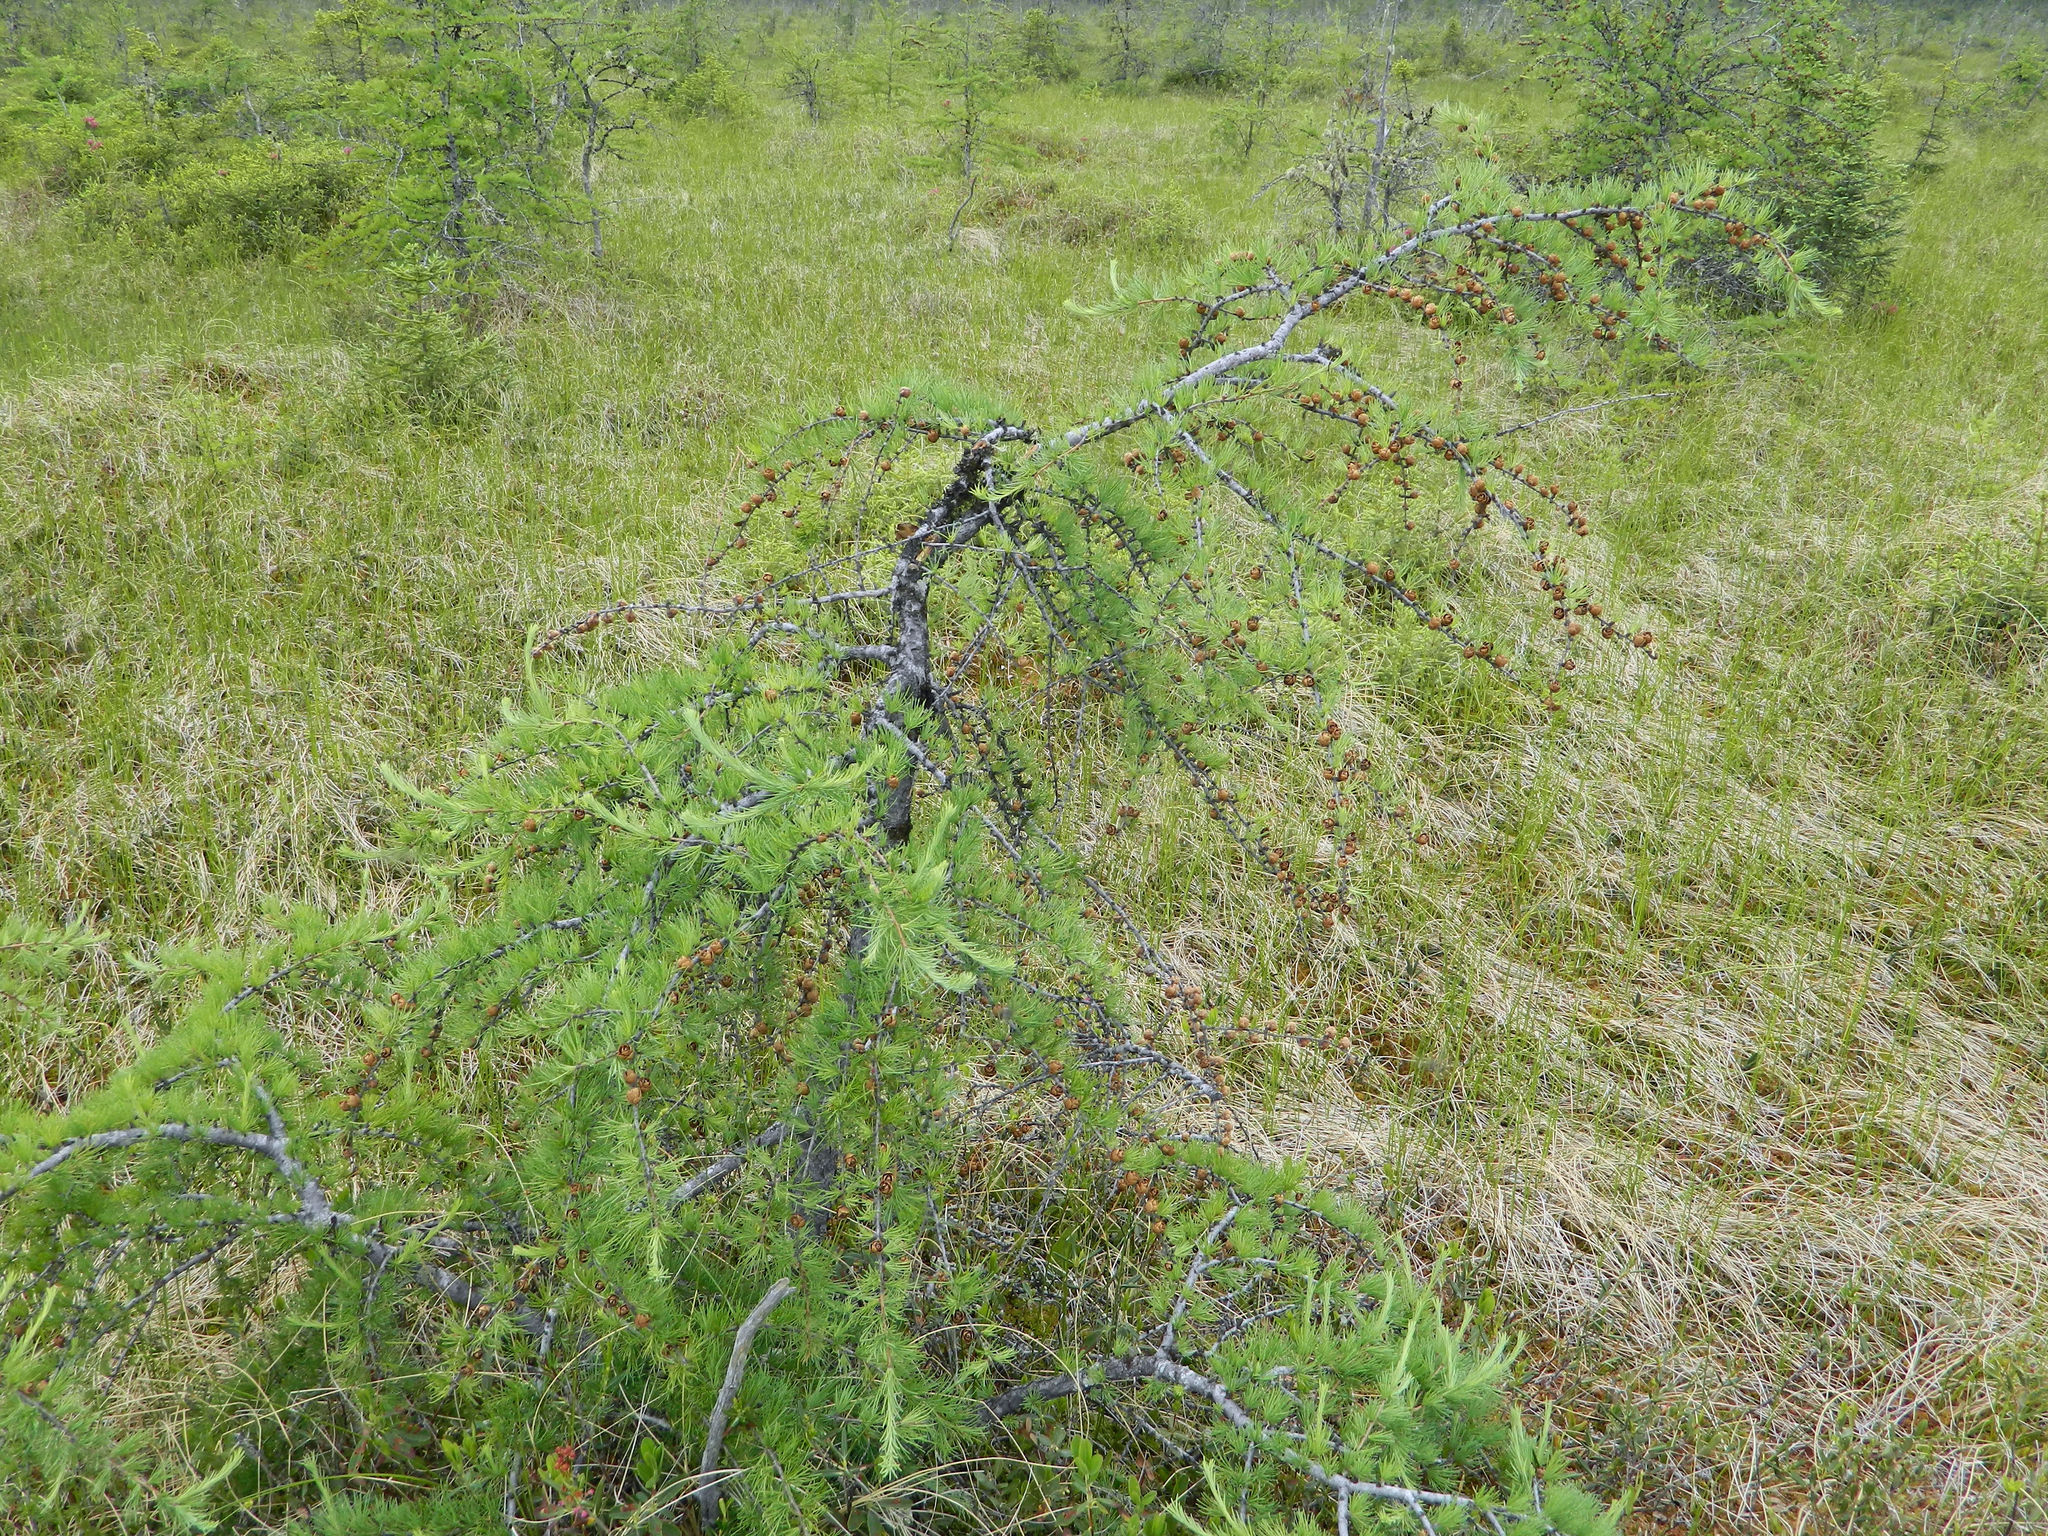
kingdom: Plantae
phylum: Tracheophyta
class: Pinopsida
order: Pinales
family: Pinaceae
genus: Larix
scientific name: Larix laricina
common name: American larch
